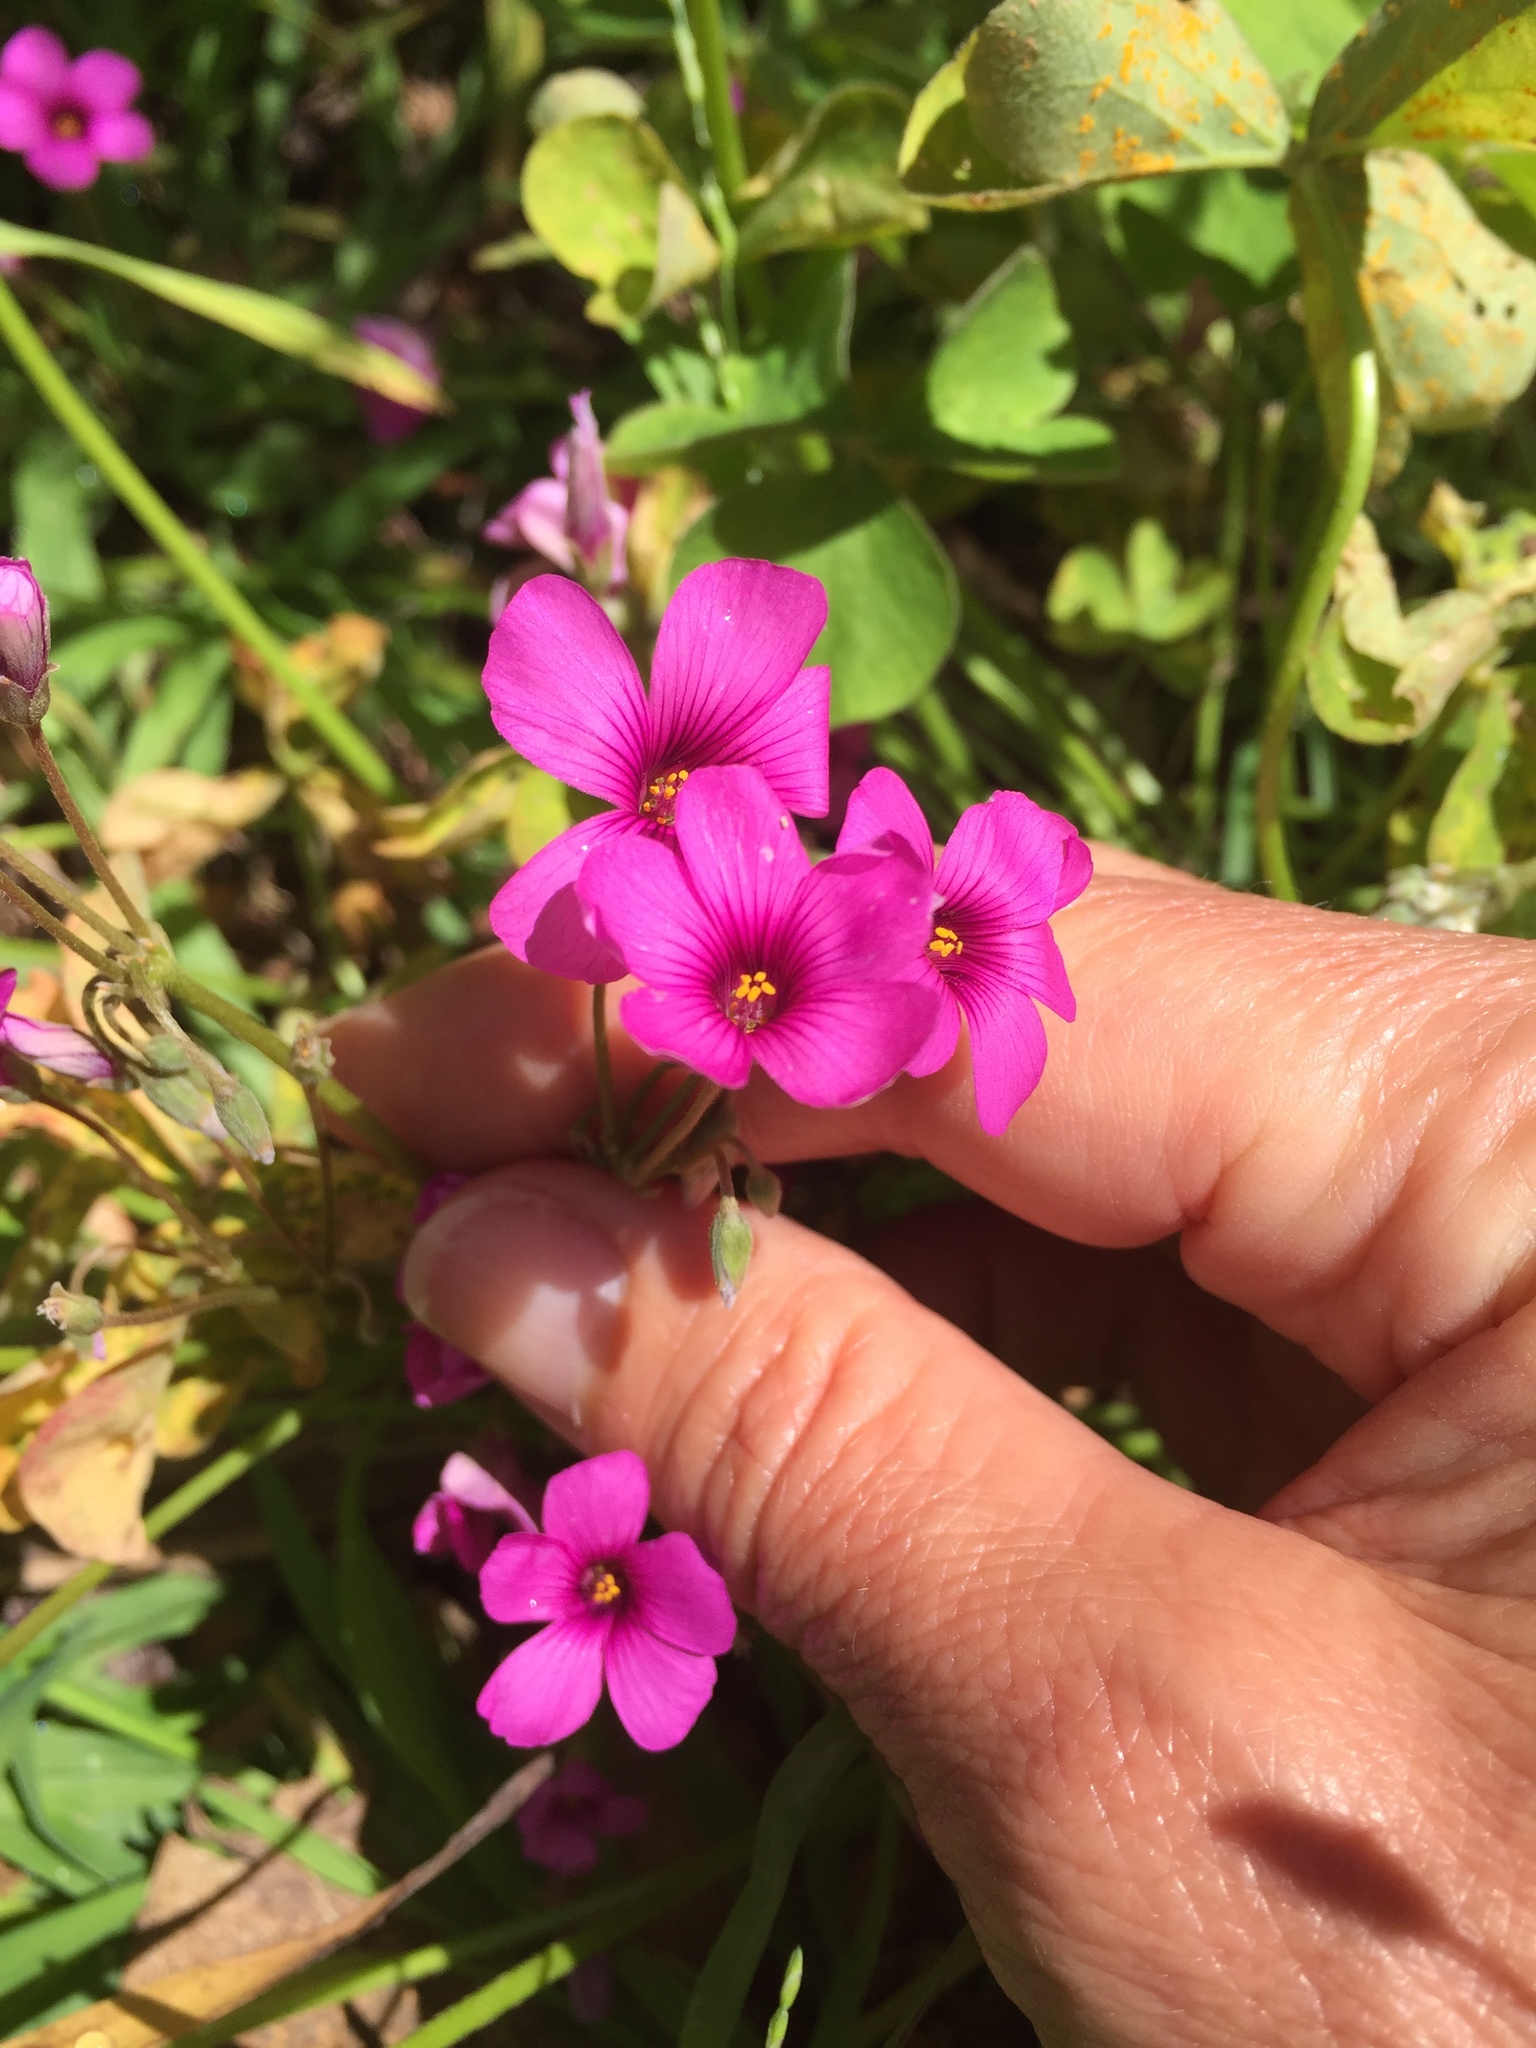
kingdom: Plantae
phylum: Tracheophyta
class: Magnoliopsida
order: Oxalidales
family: Oxalidaceae
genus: Oxalis
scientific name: Oxalis articulata
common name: Pink-sorrel
